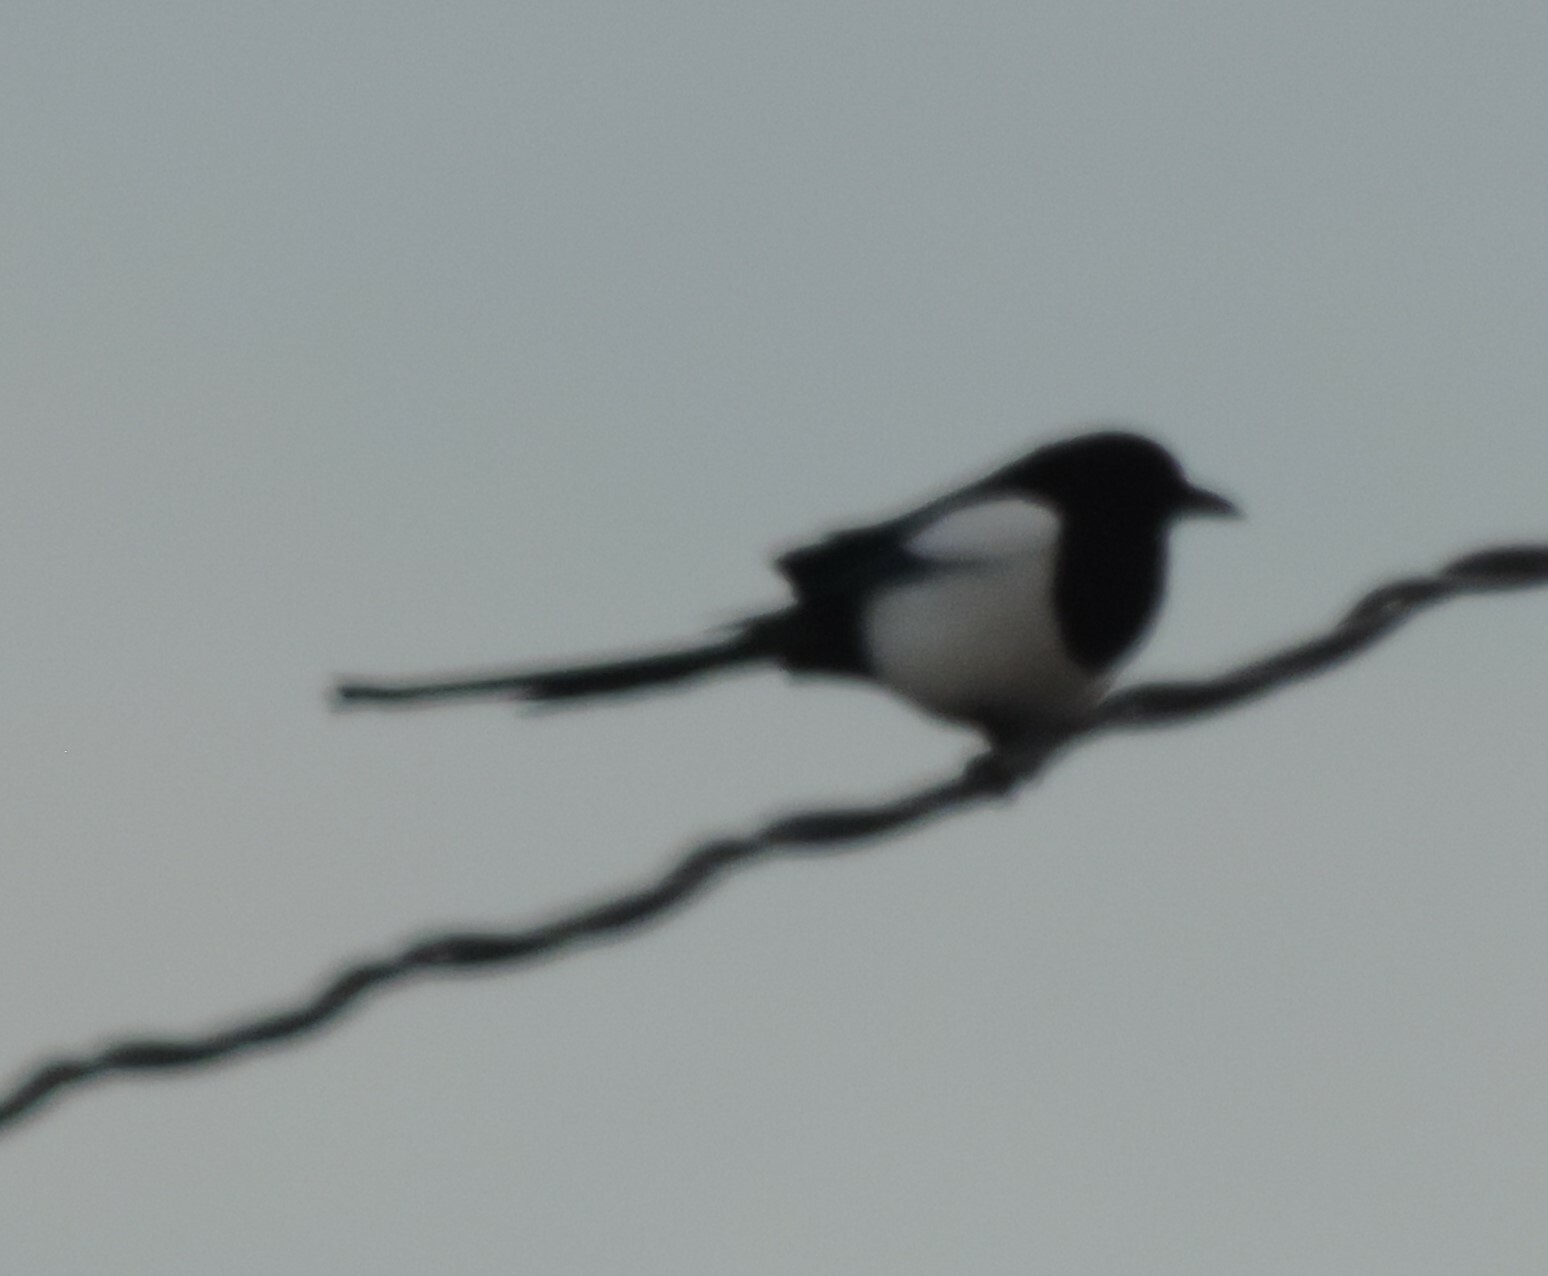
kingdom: Animalia
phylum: Chordata
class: Aves
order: Passeriformes
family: Corvidae
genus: Pica
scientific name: Pica hudsonia
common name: Black-billed magpie
